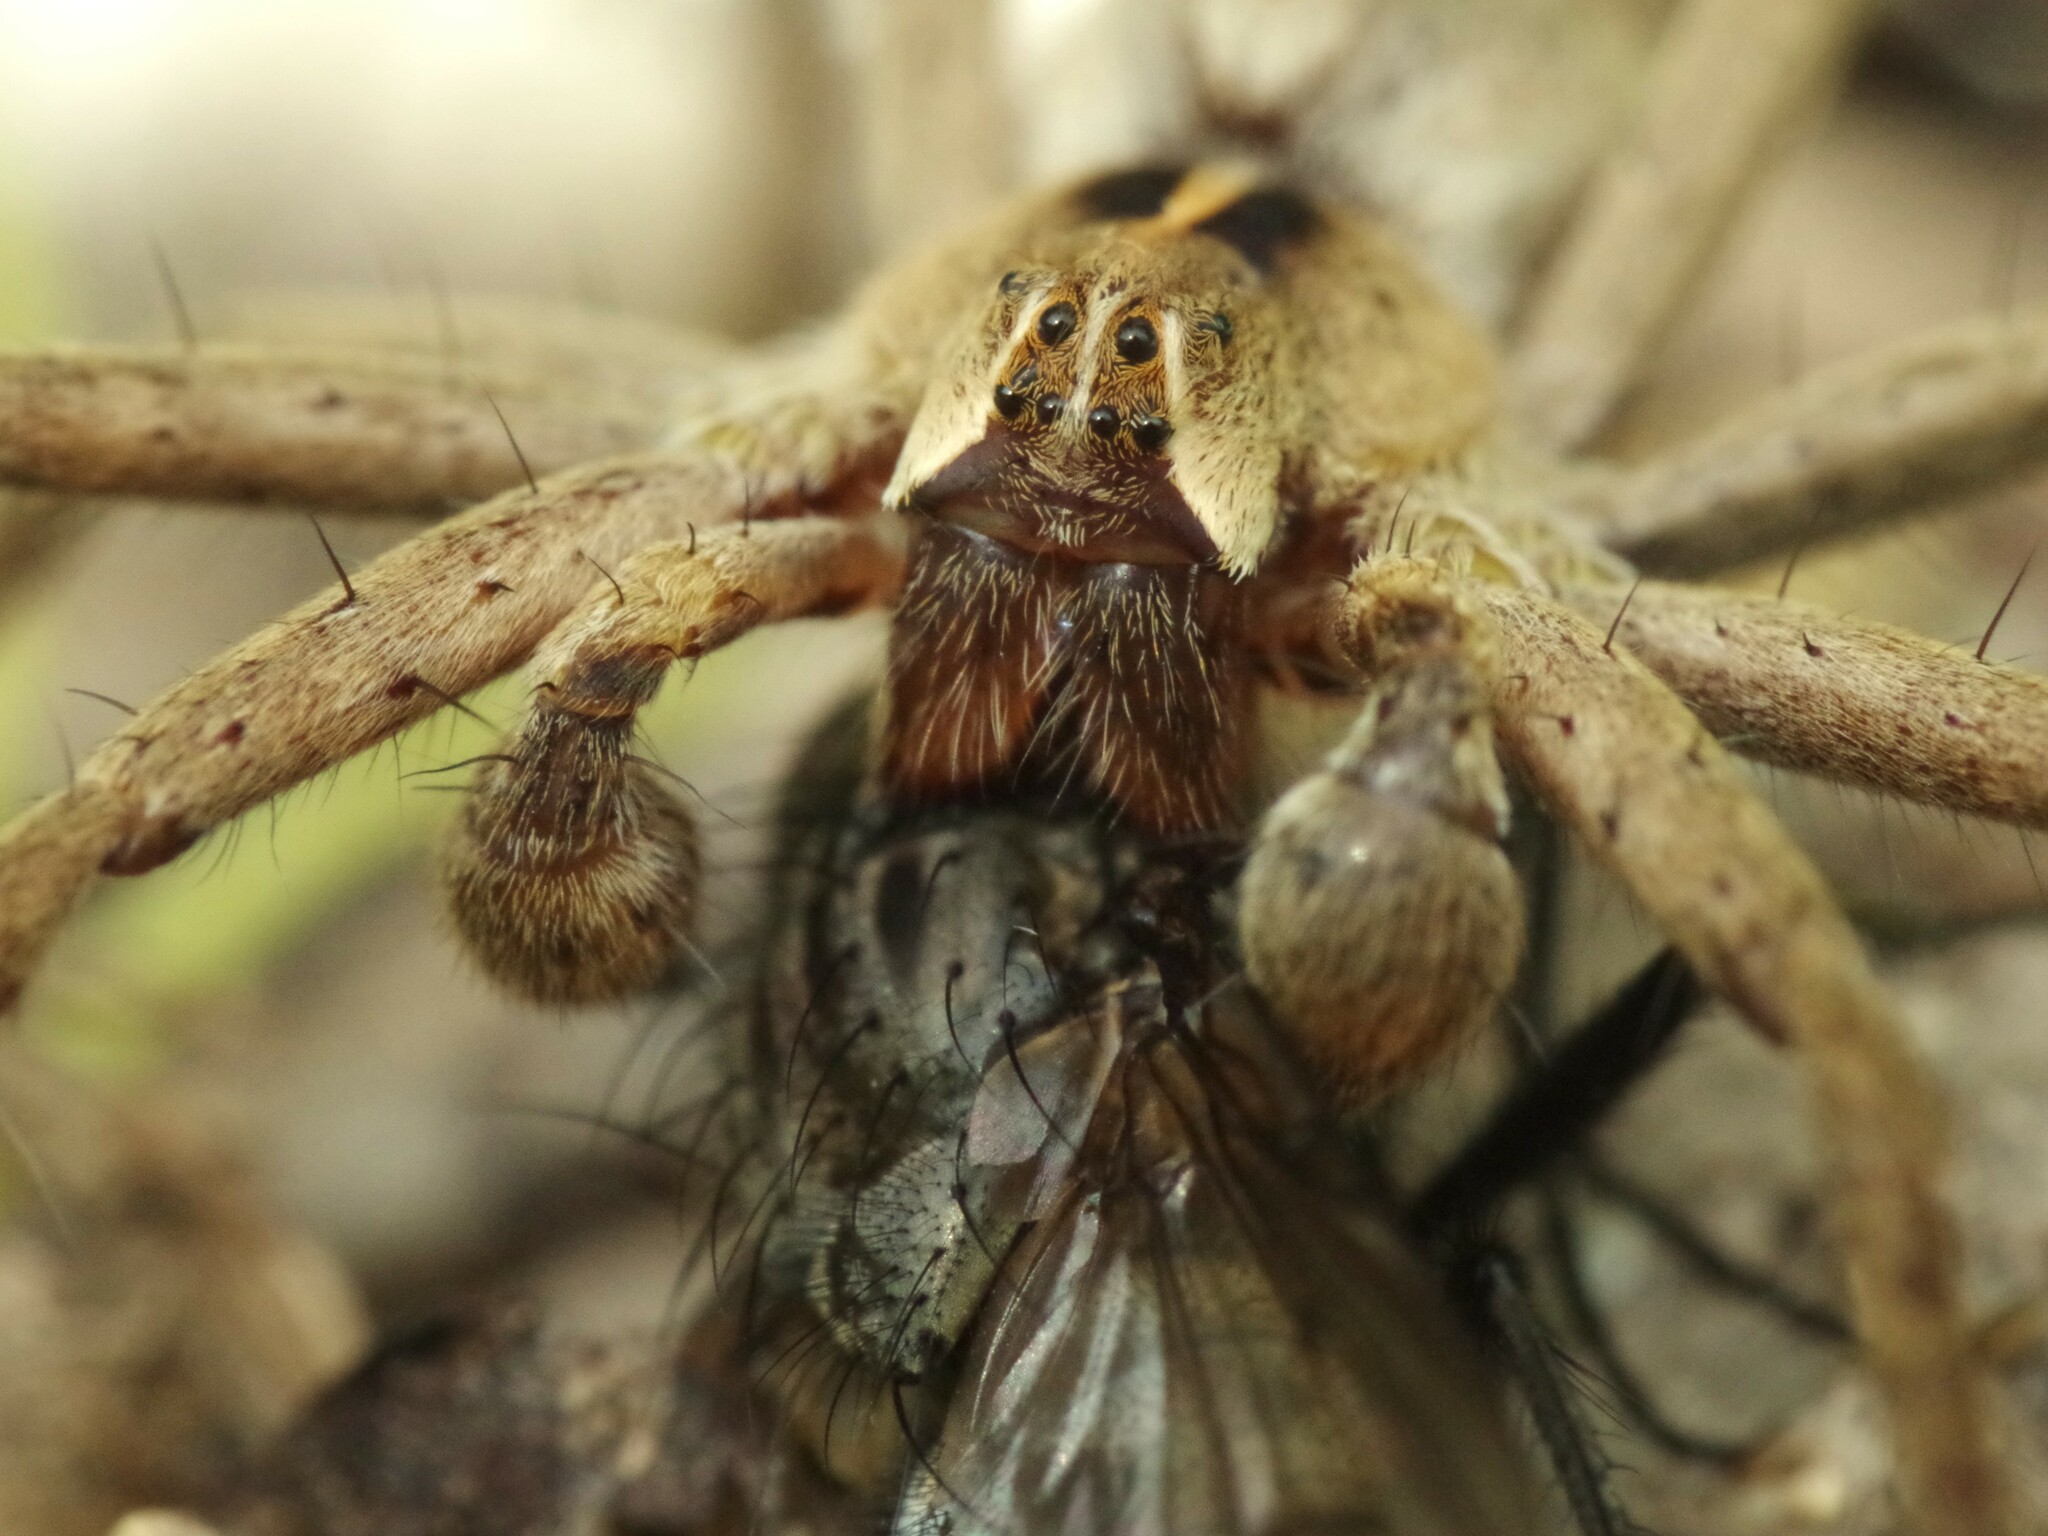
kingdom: Animalia
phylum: Arthropoda
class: Arachnida
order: Araneae
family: Pisauridae
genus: Pisaura
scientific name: Pisaura mirabilis
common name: Tent spider
